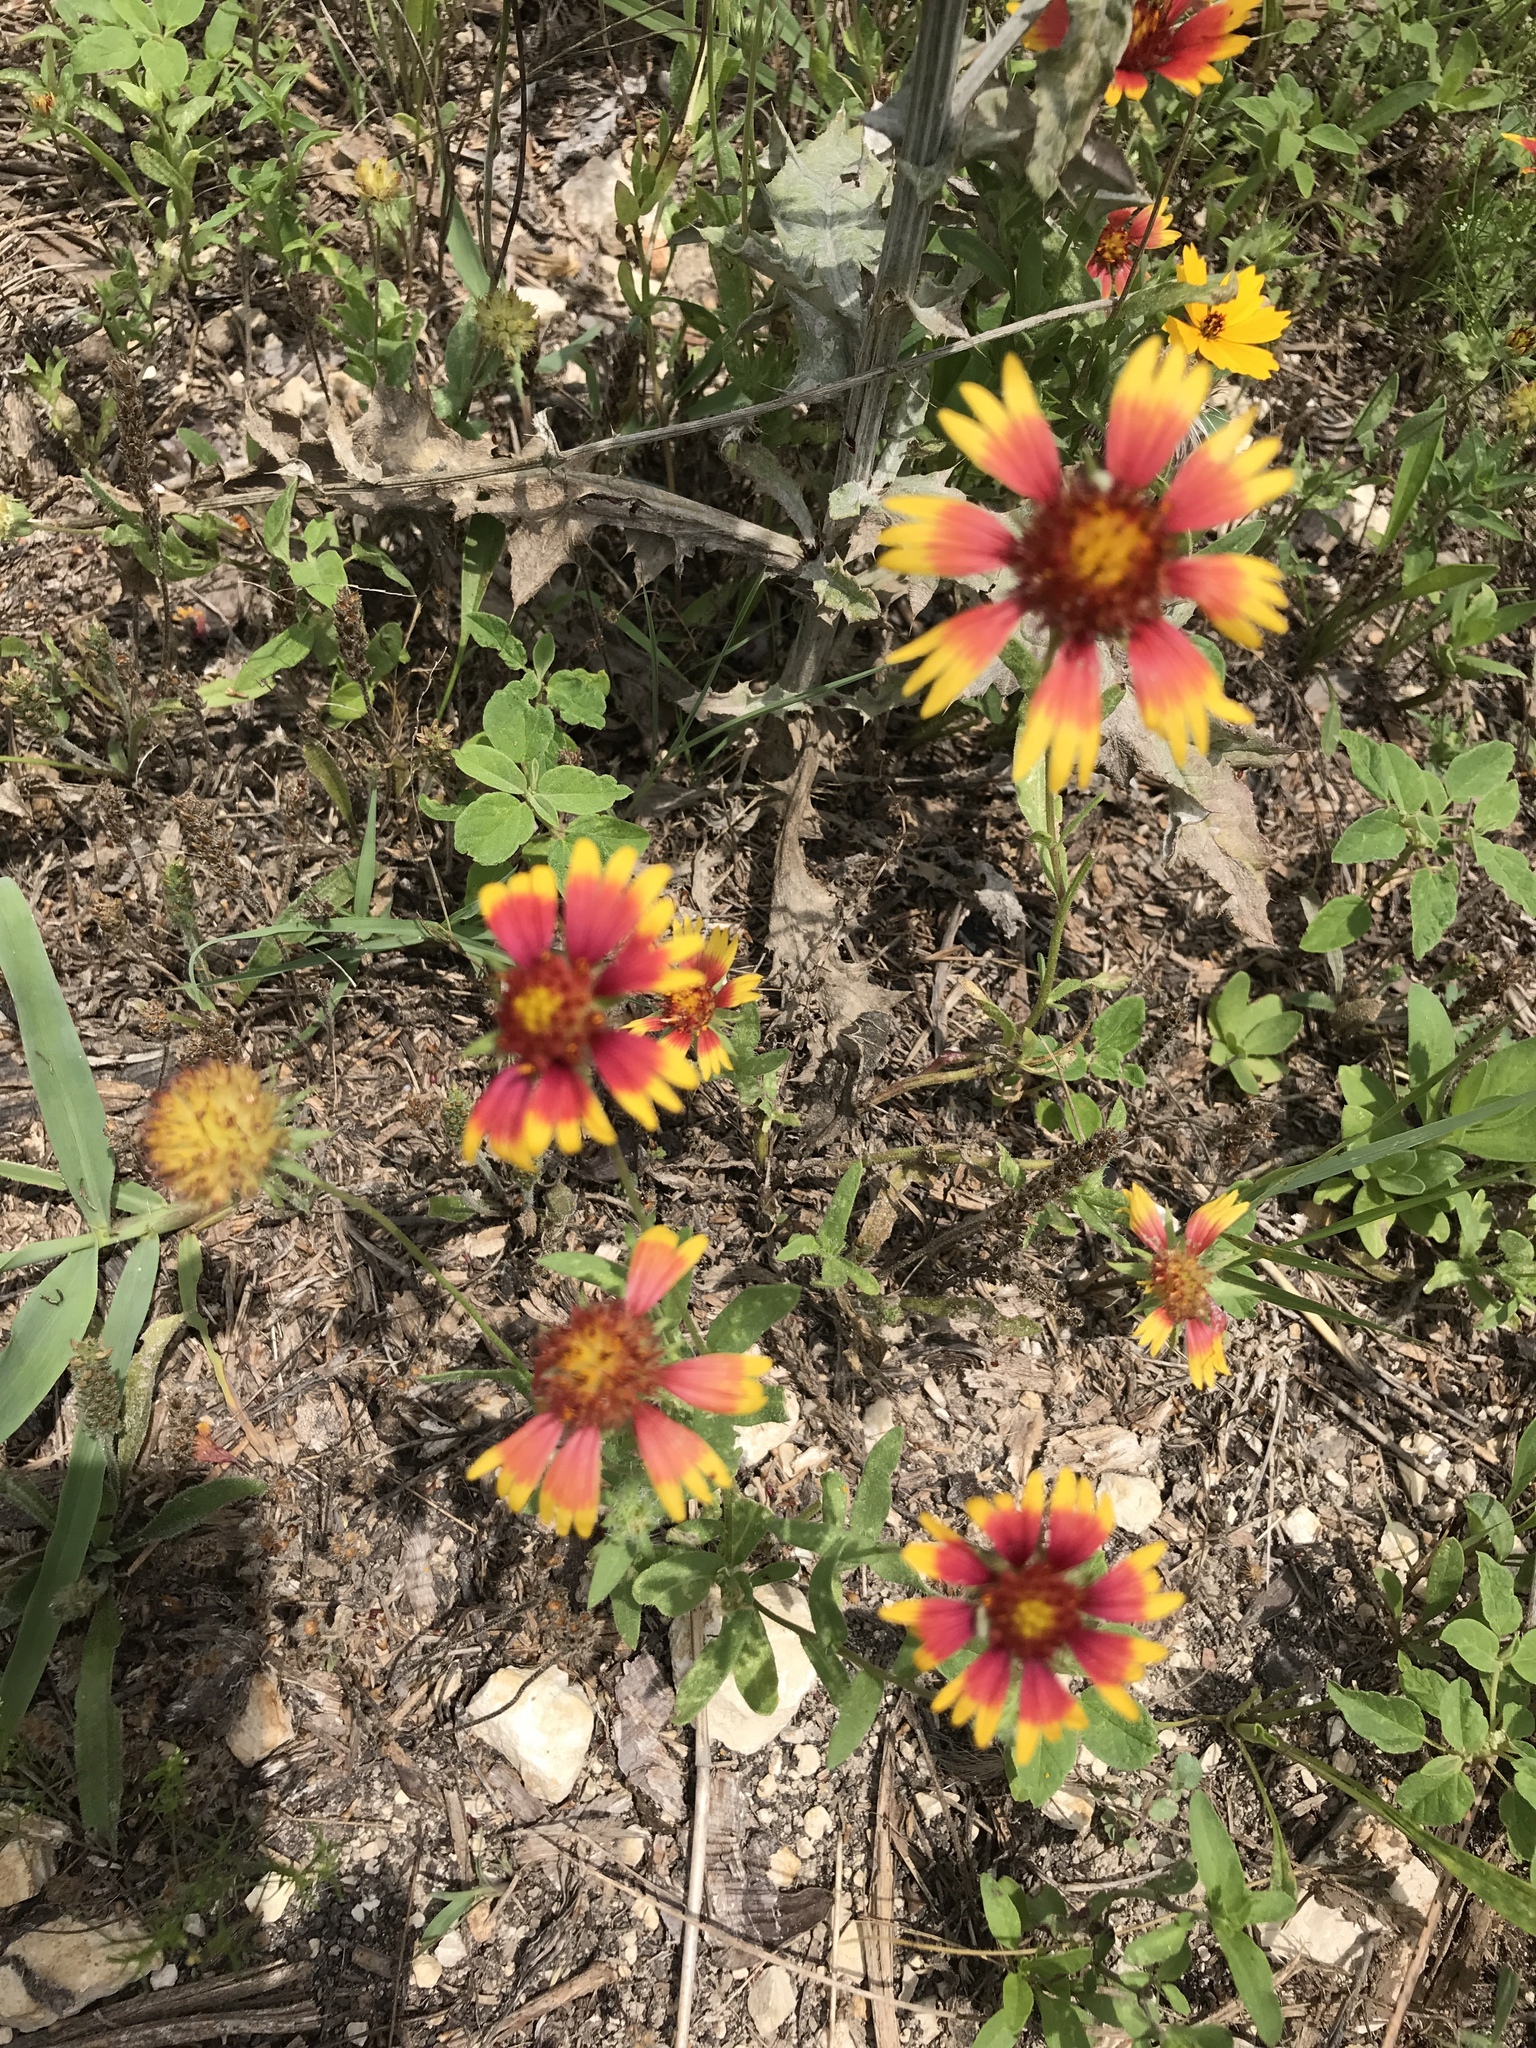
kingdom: Plantae
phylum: Tracheophyta
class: Magnoliopsida
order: Asterales
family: Asteraceae
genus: Gaillardia
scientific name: Gaillardia pulchella
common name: Firewheel
